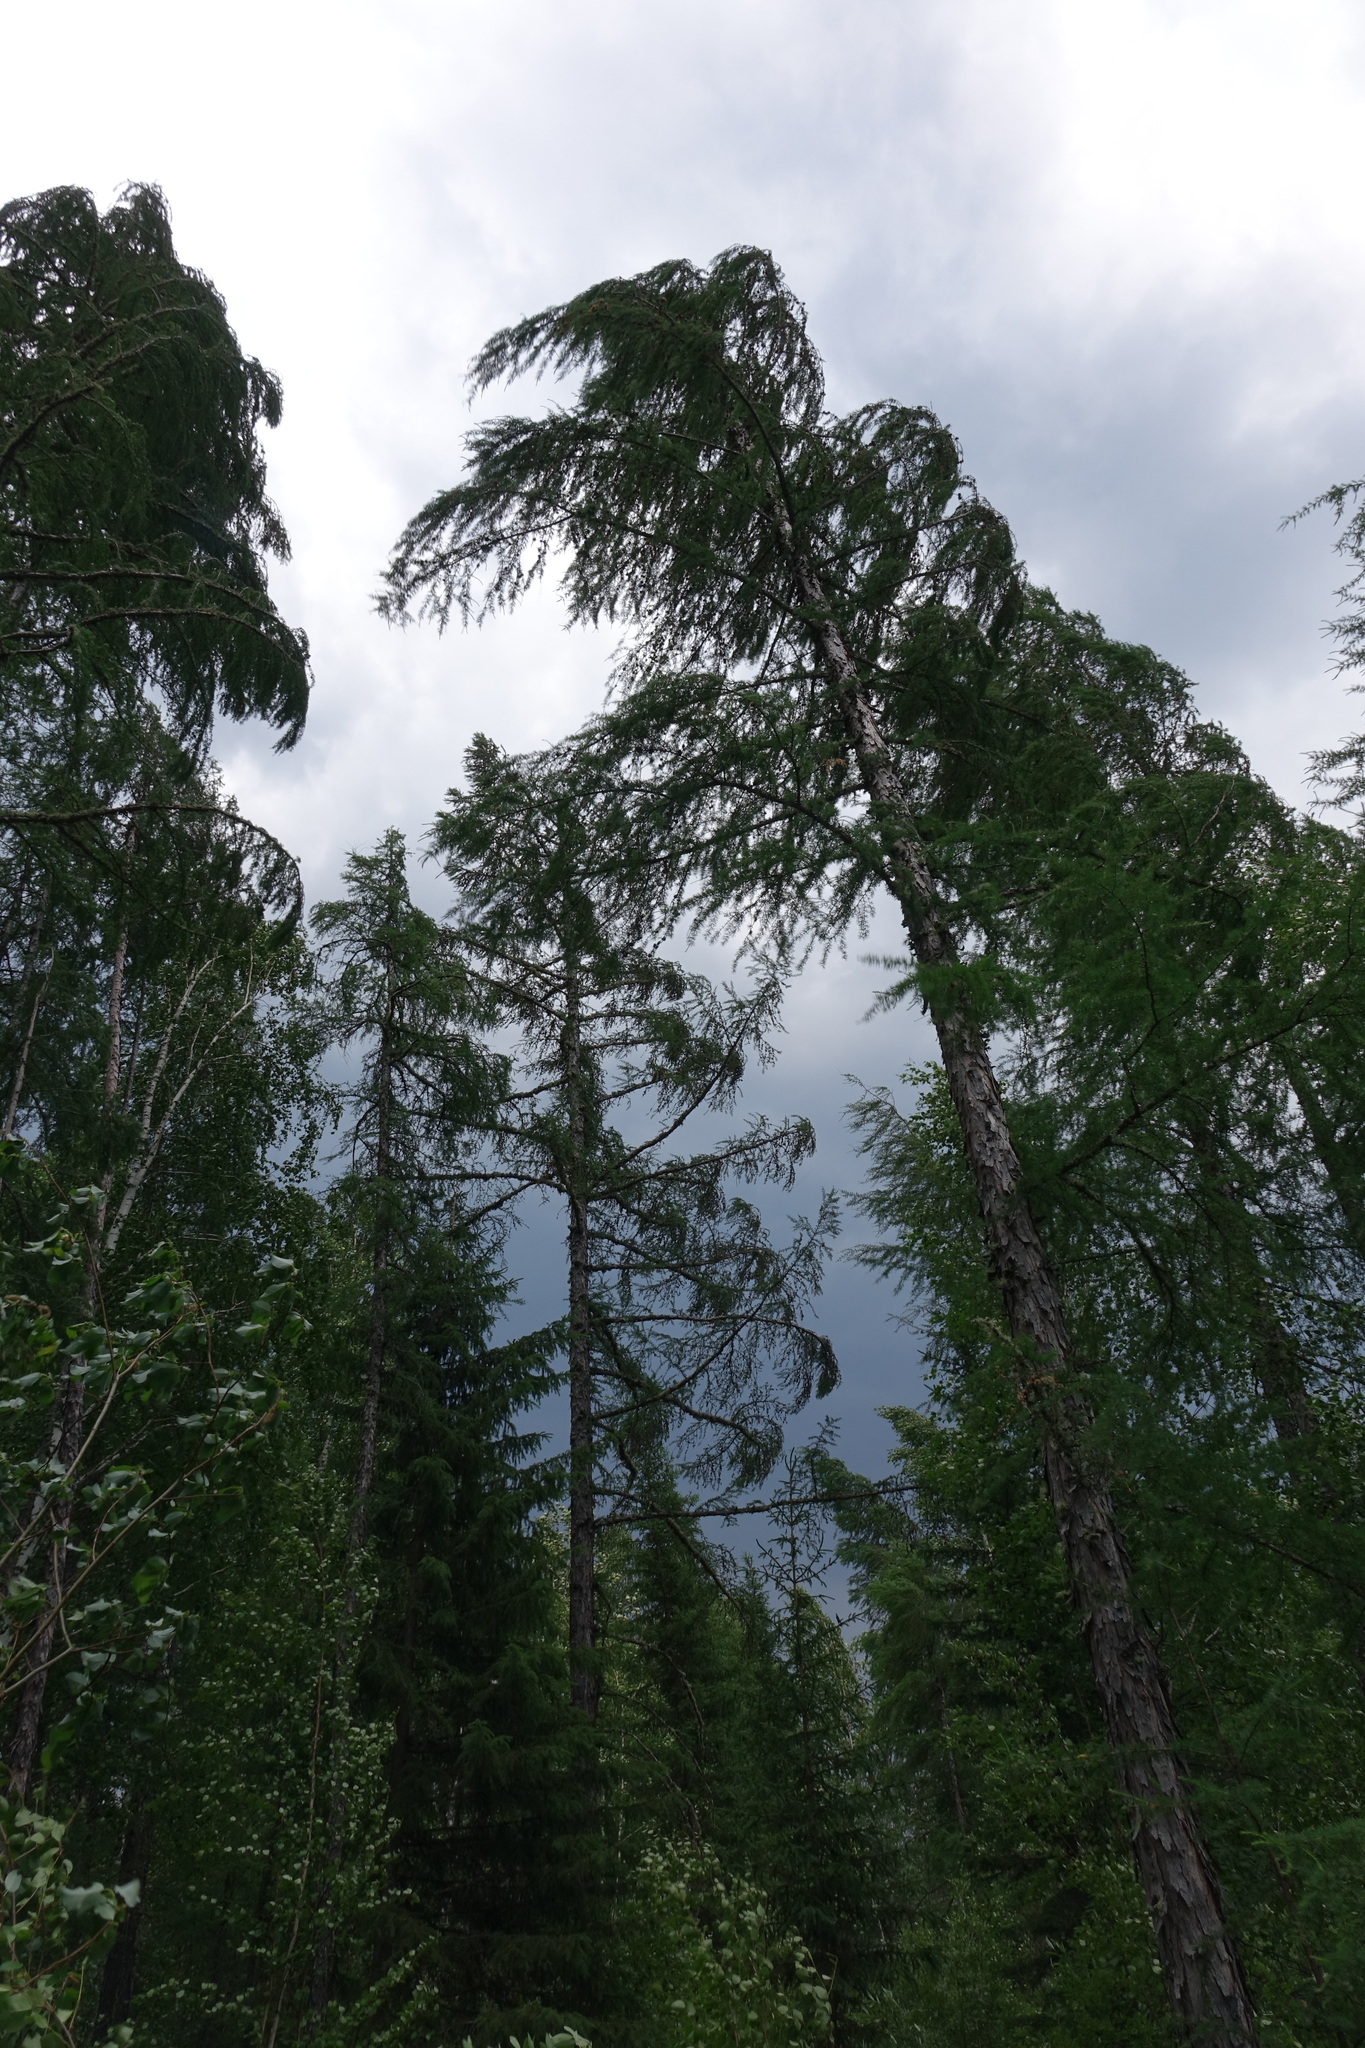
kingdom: Plantae
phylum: Tracheophyta
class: Pinopsida
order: Pinales
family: Pinaceae
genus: Larix
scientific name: Larix gmelinii
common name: Dahurian larch
